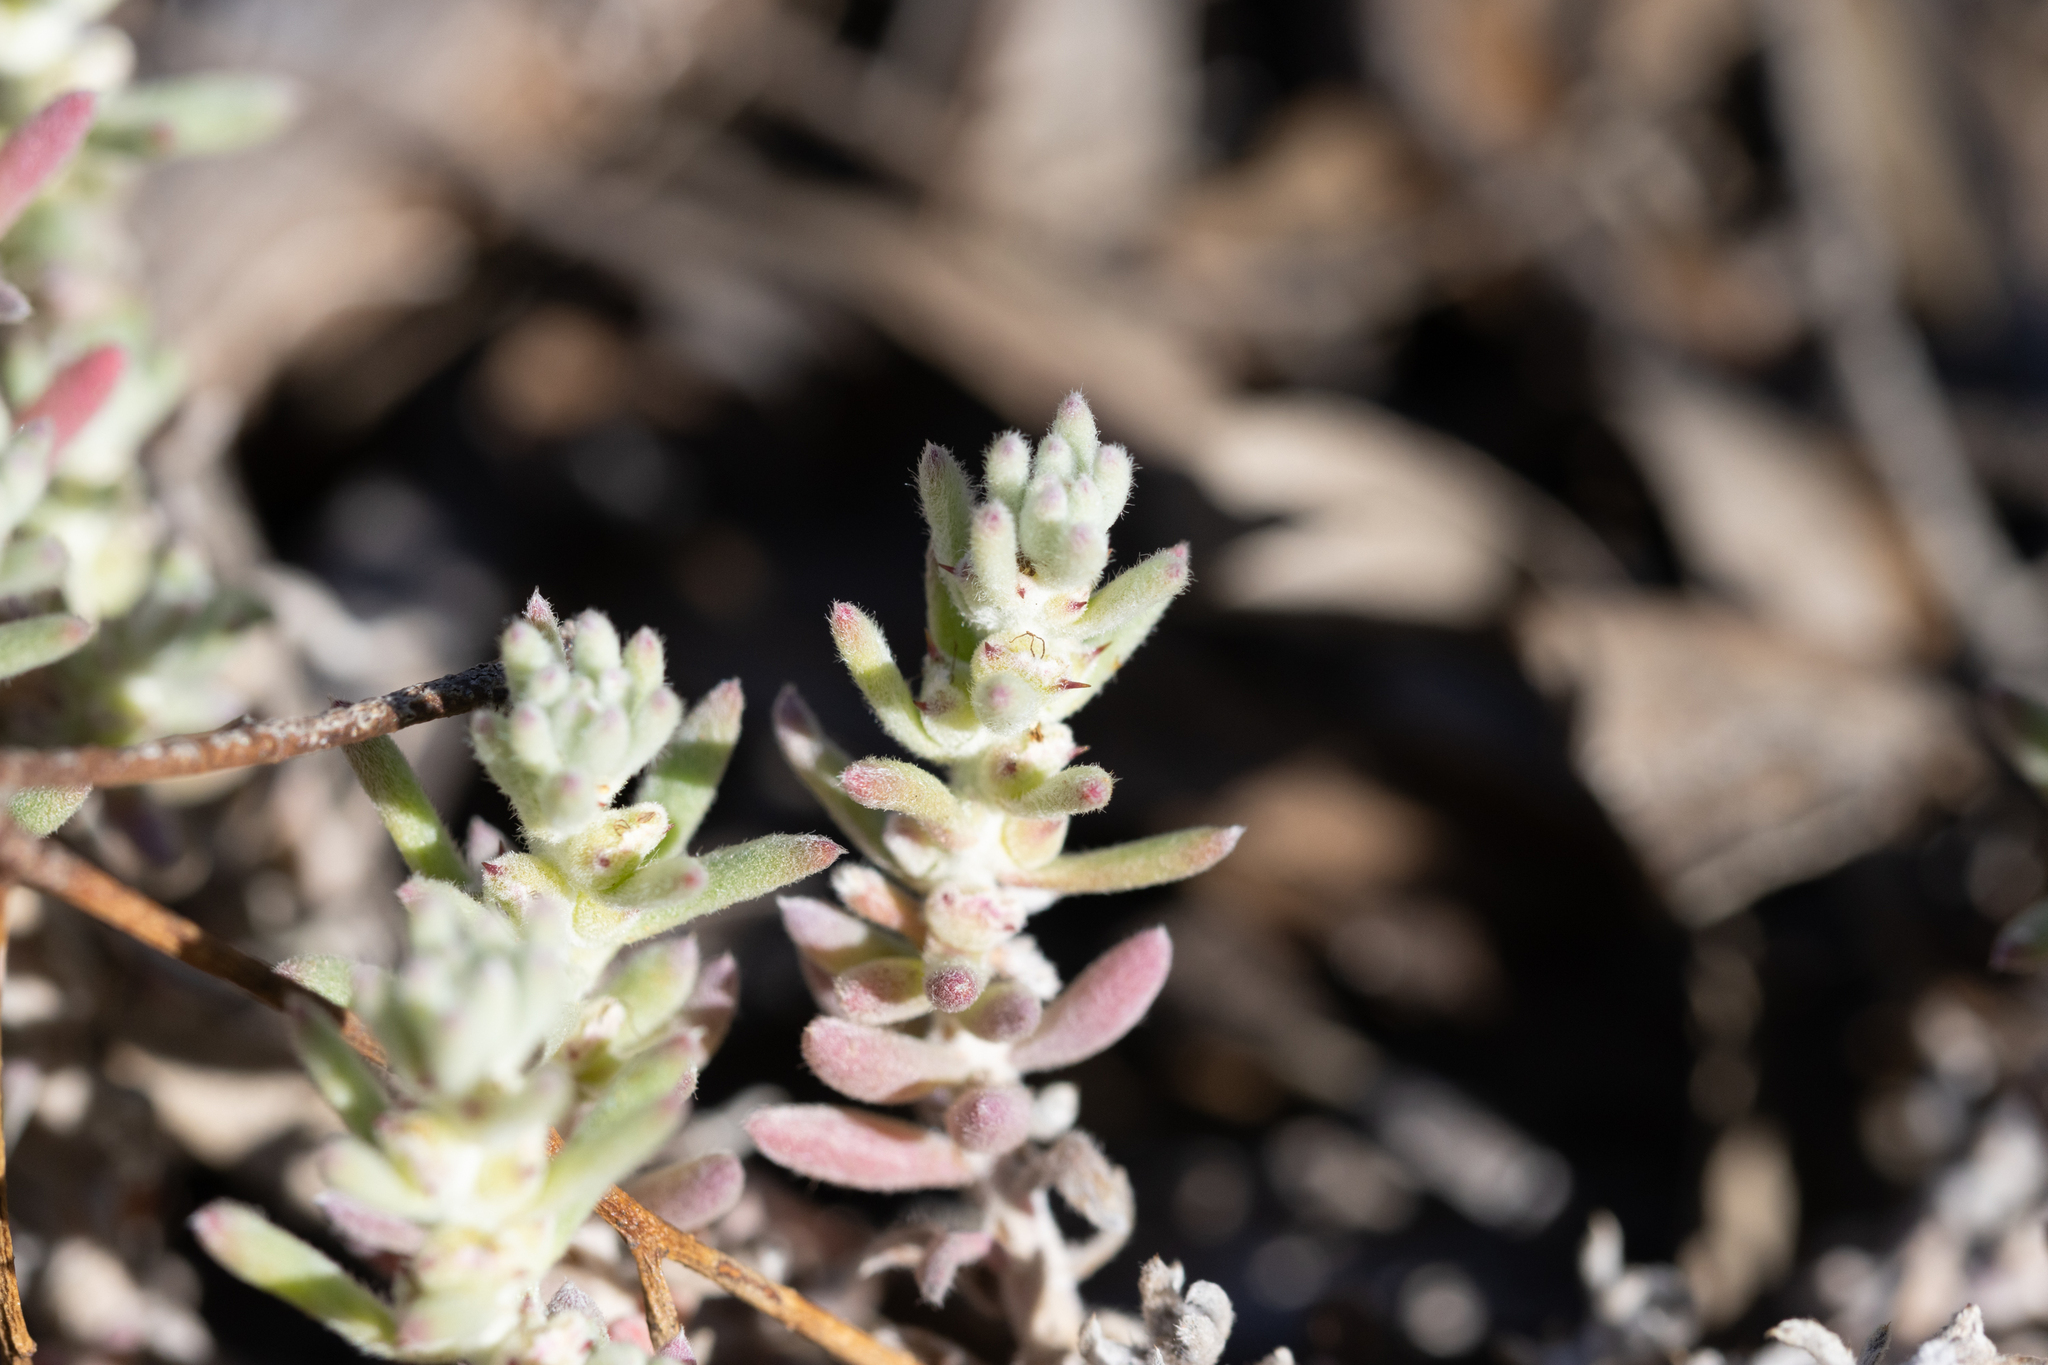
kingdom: Plantae
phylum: Tracheophyta
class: Magnoliopsida
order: Caryophyllales
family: Amaranthaceae
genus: Sclerolaena
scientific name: Sclerolaena diacantha
